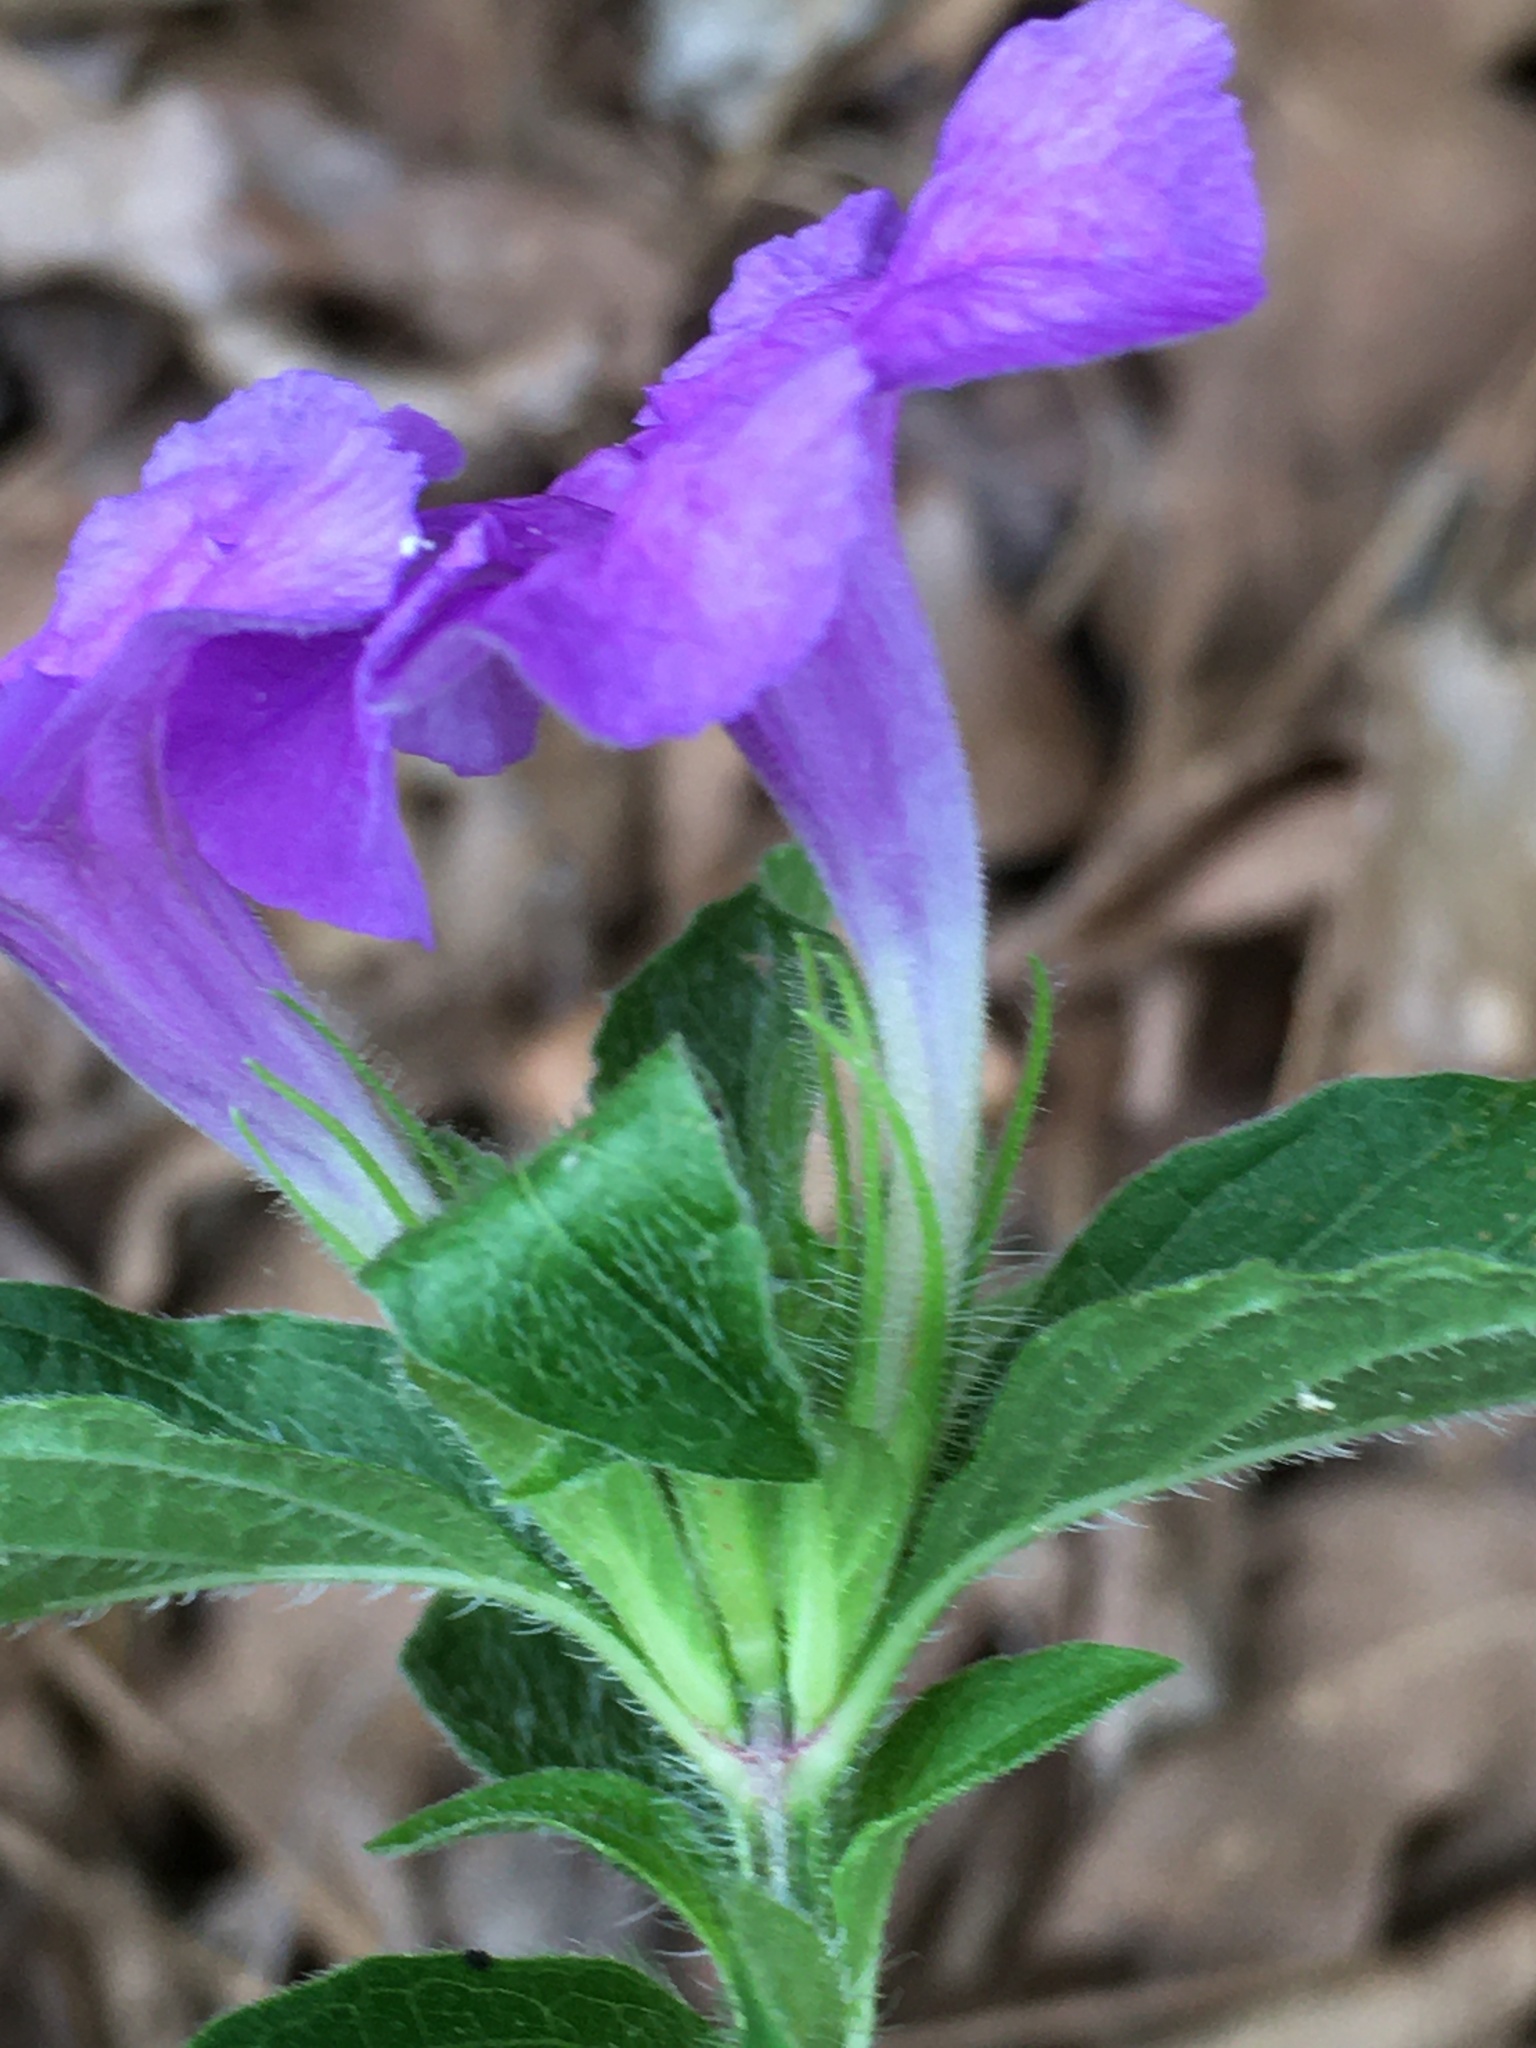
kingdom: Plantae
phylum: Tracheophyta
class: Magnoliopsida
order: Lamiales
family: Acanthaceae
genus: Ruellia
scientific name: Ruellia caroliniensis
